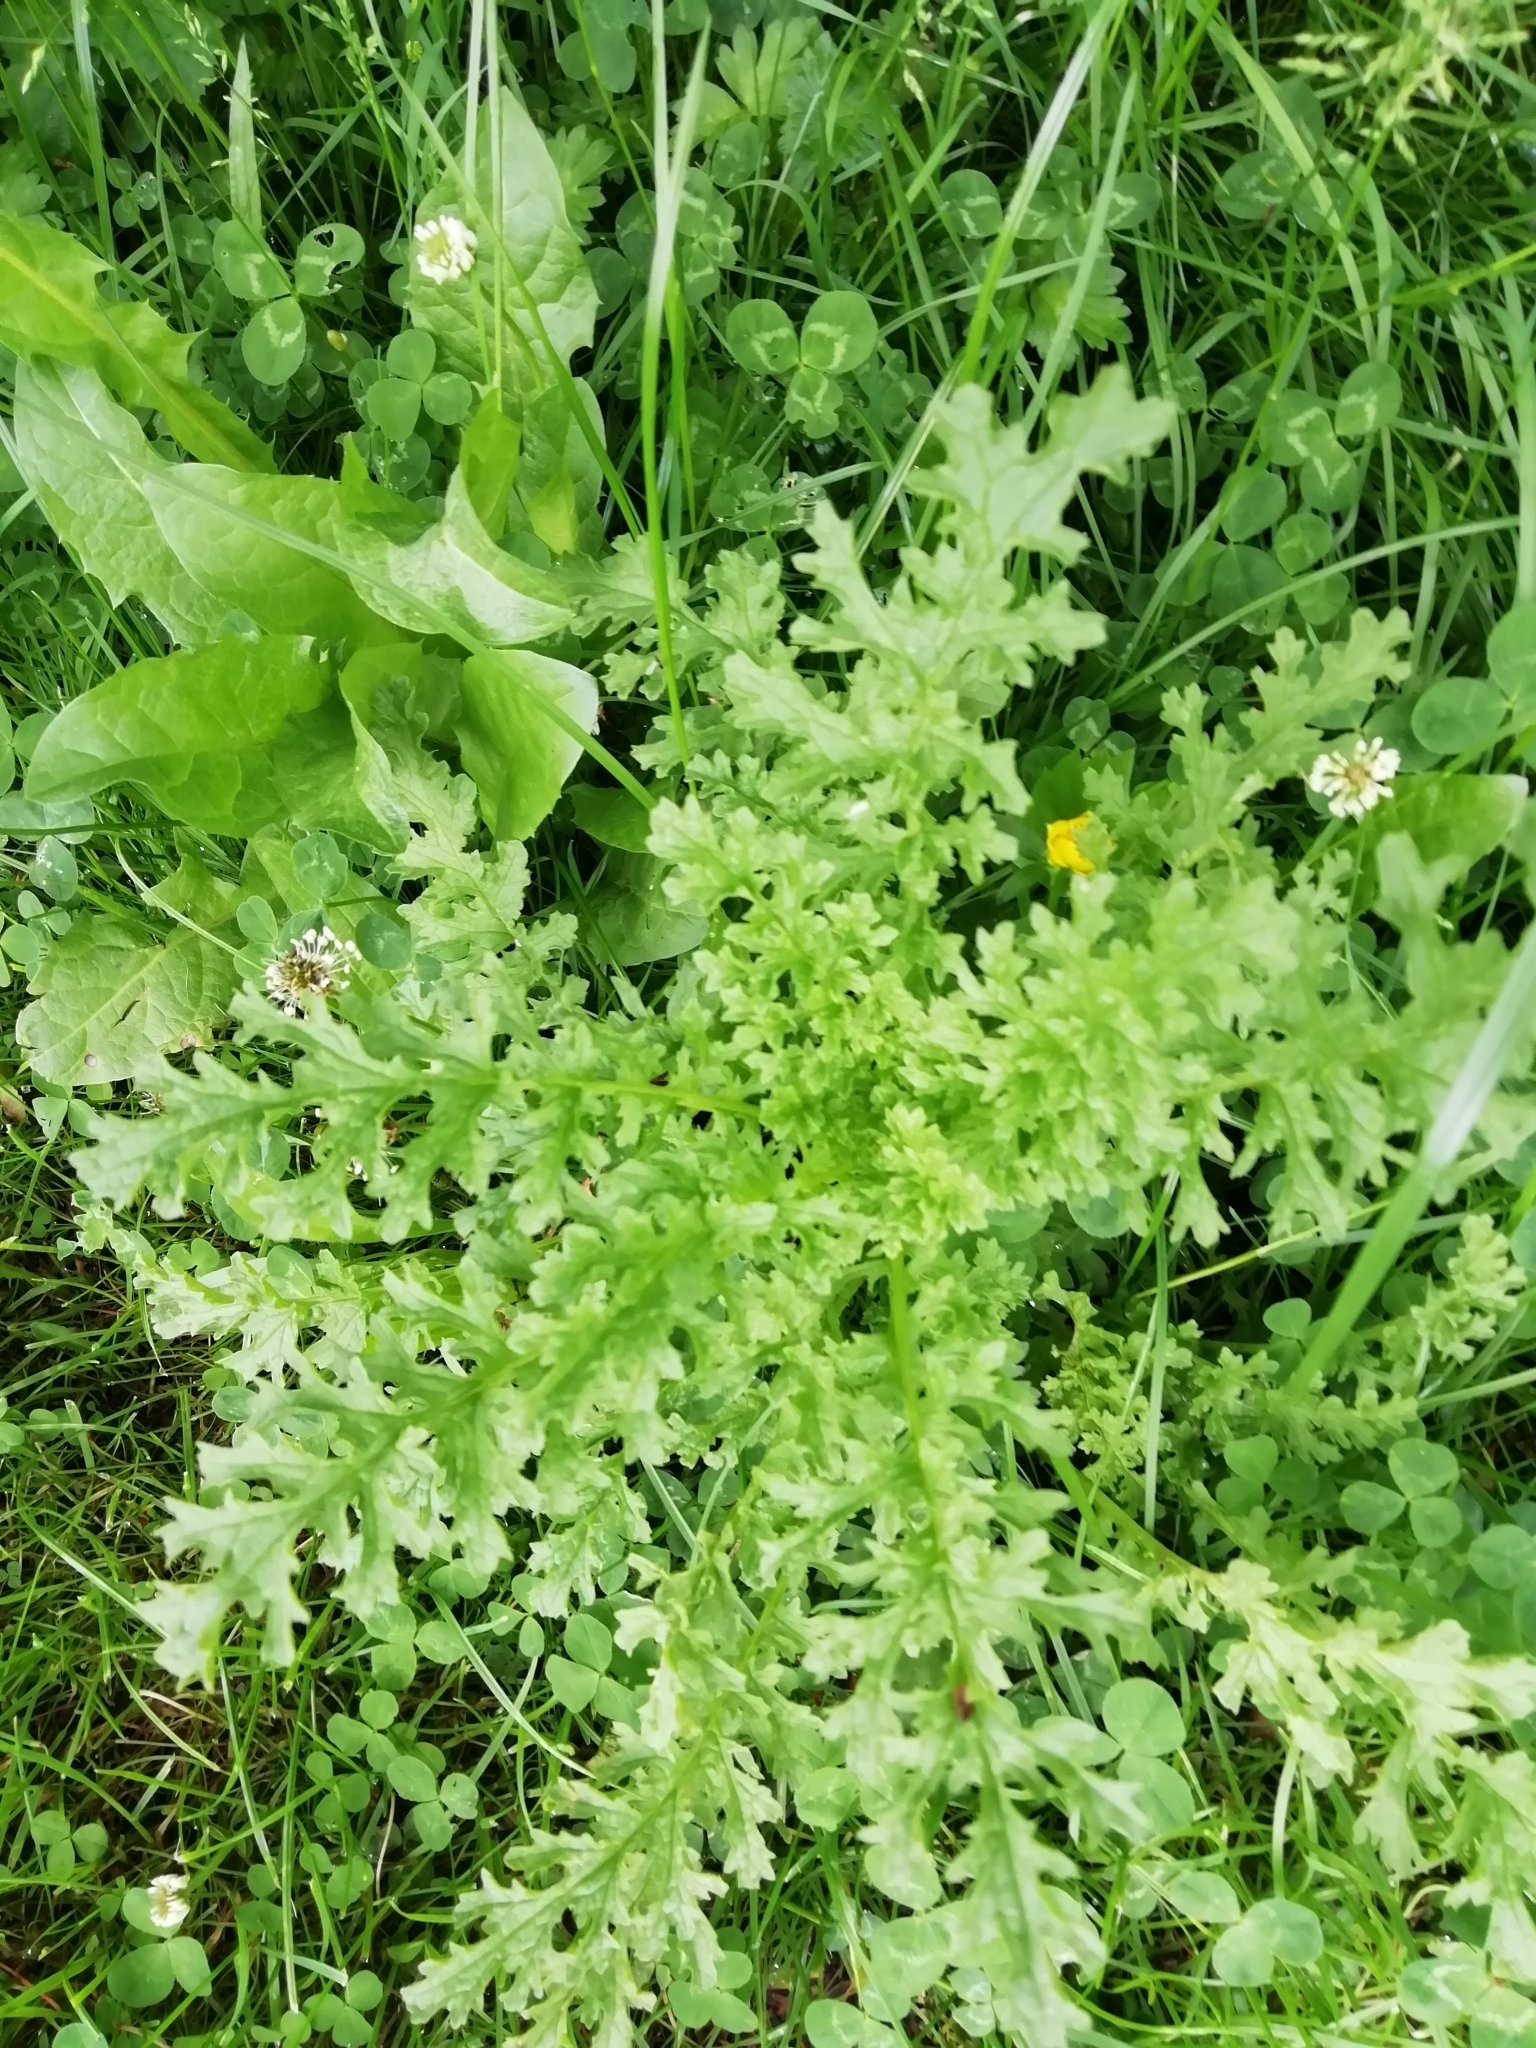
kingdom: Plantae
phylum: Tracheophyta
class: Magnoliopsida
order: Asterales
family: Asteraceae
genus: Jacobaea
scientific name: Jacobaea vulgaris
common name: Stinking willie
